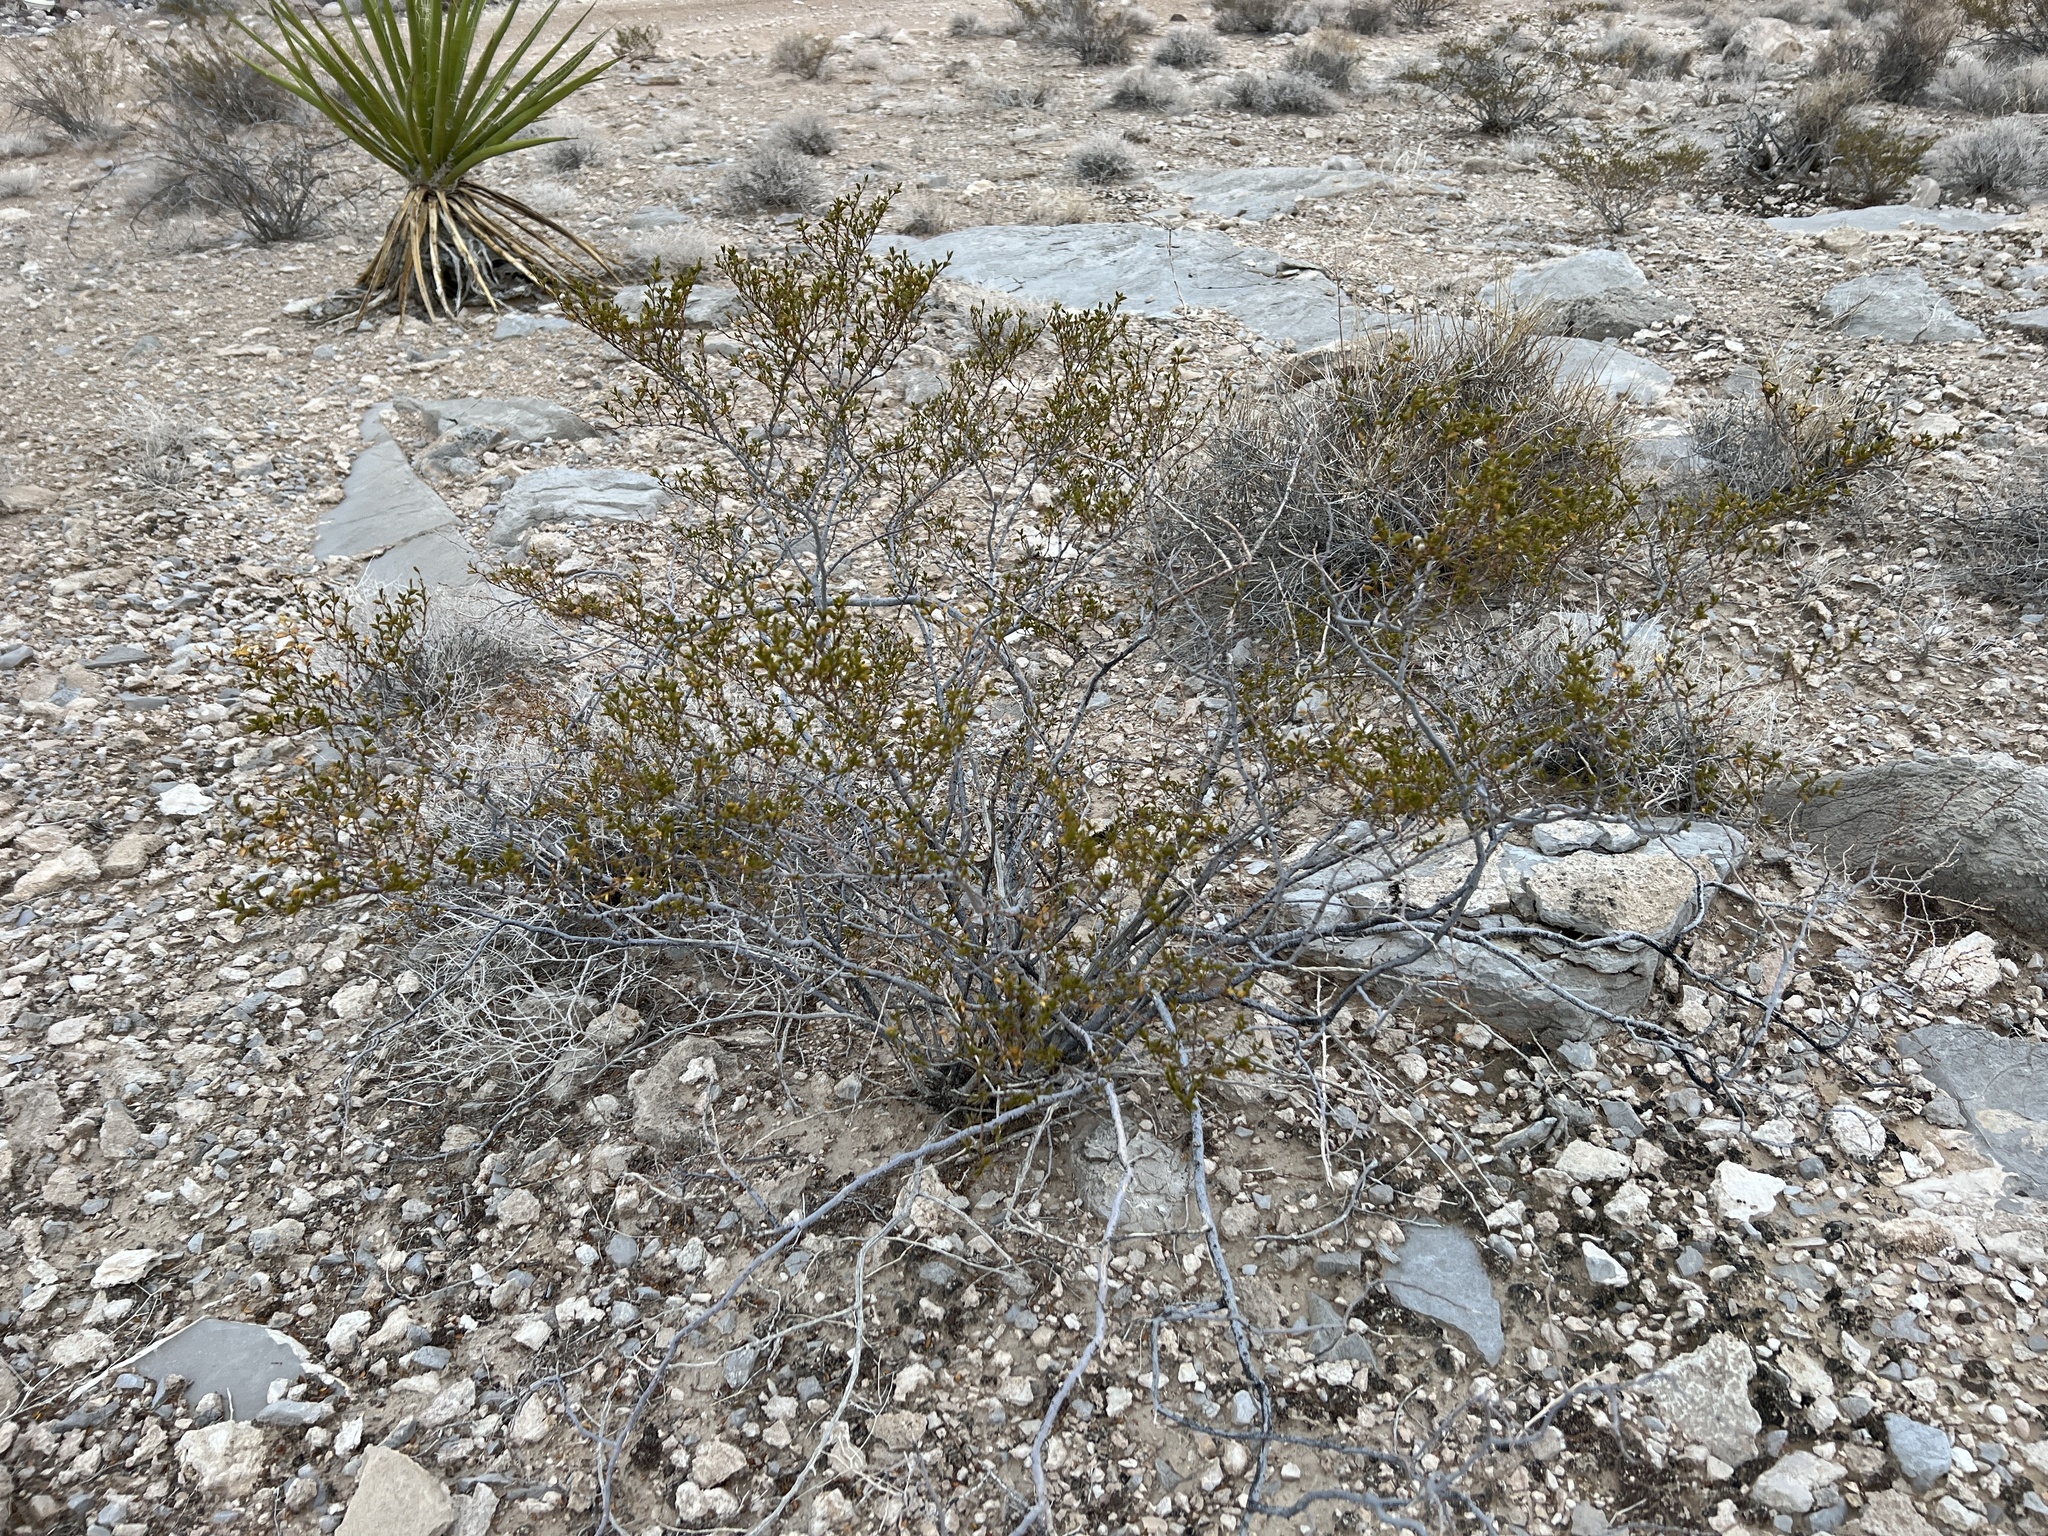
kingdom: Plantae
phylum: Tracheophyta
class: Magnoliopsida
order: Zygophyllales
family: Zygophyllaceae
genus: Larrea
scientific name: Larrea tridentata
